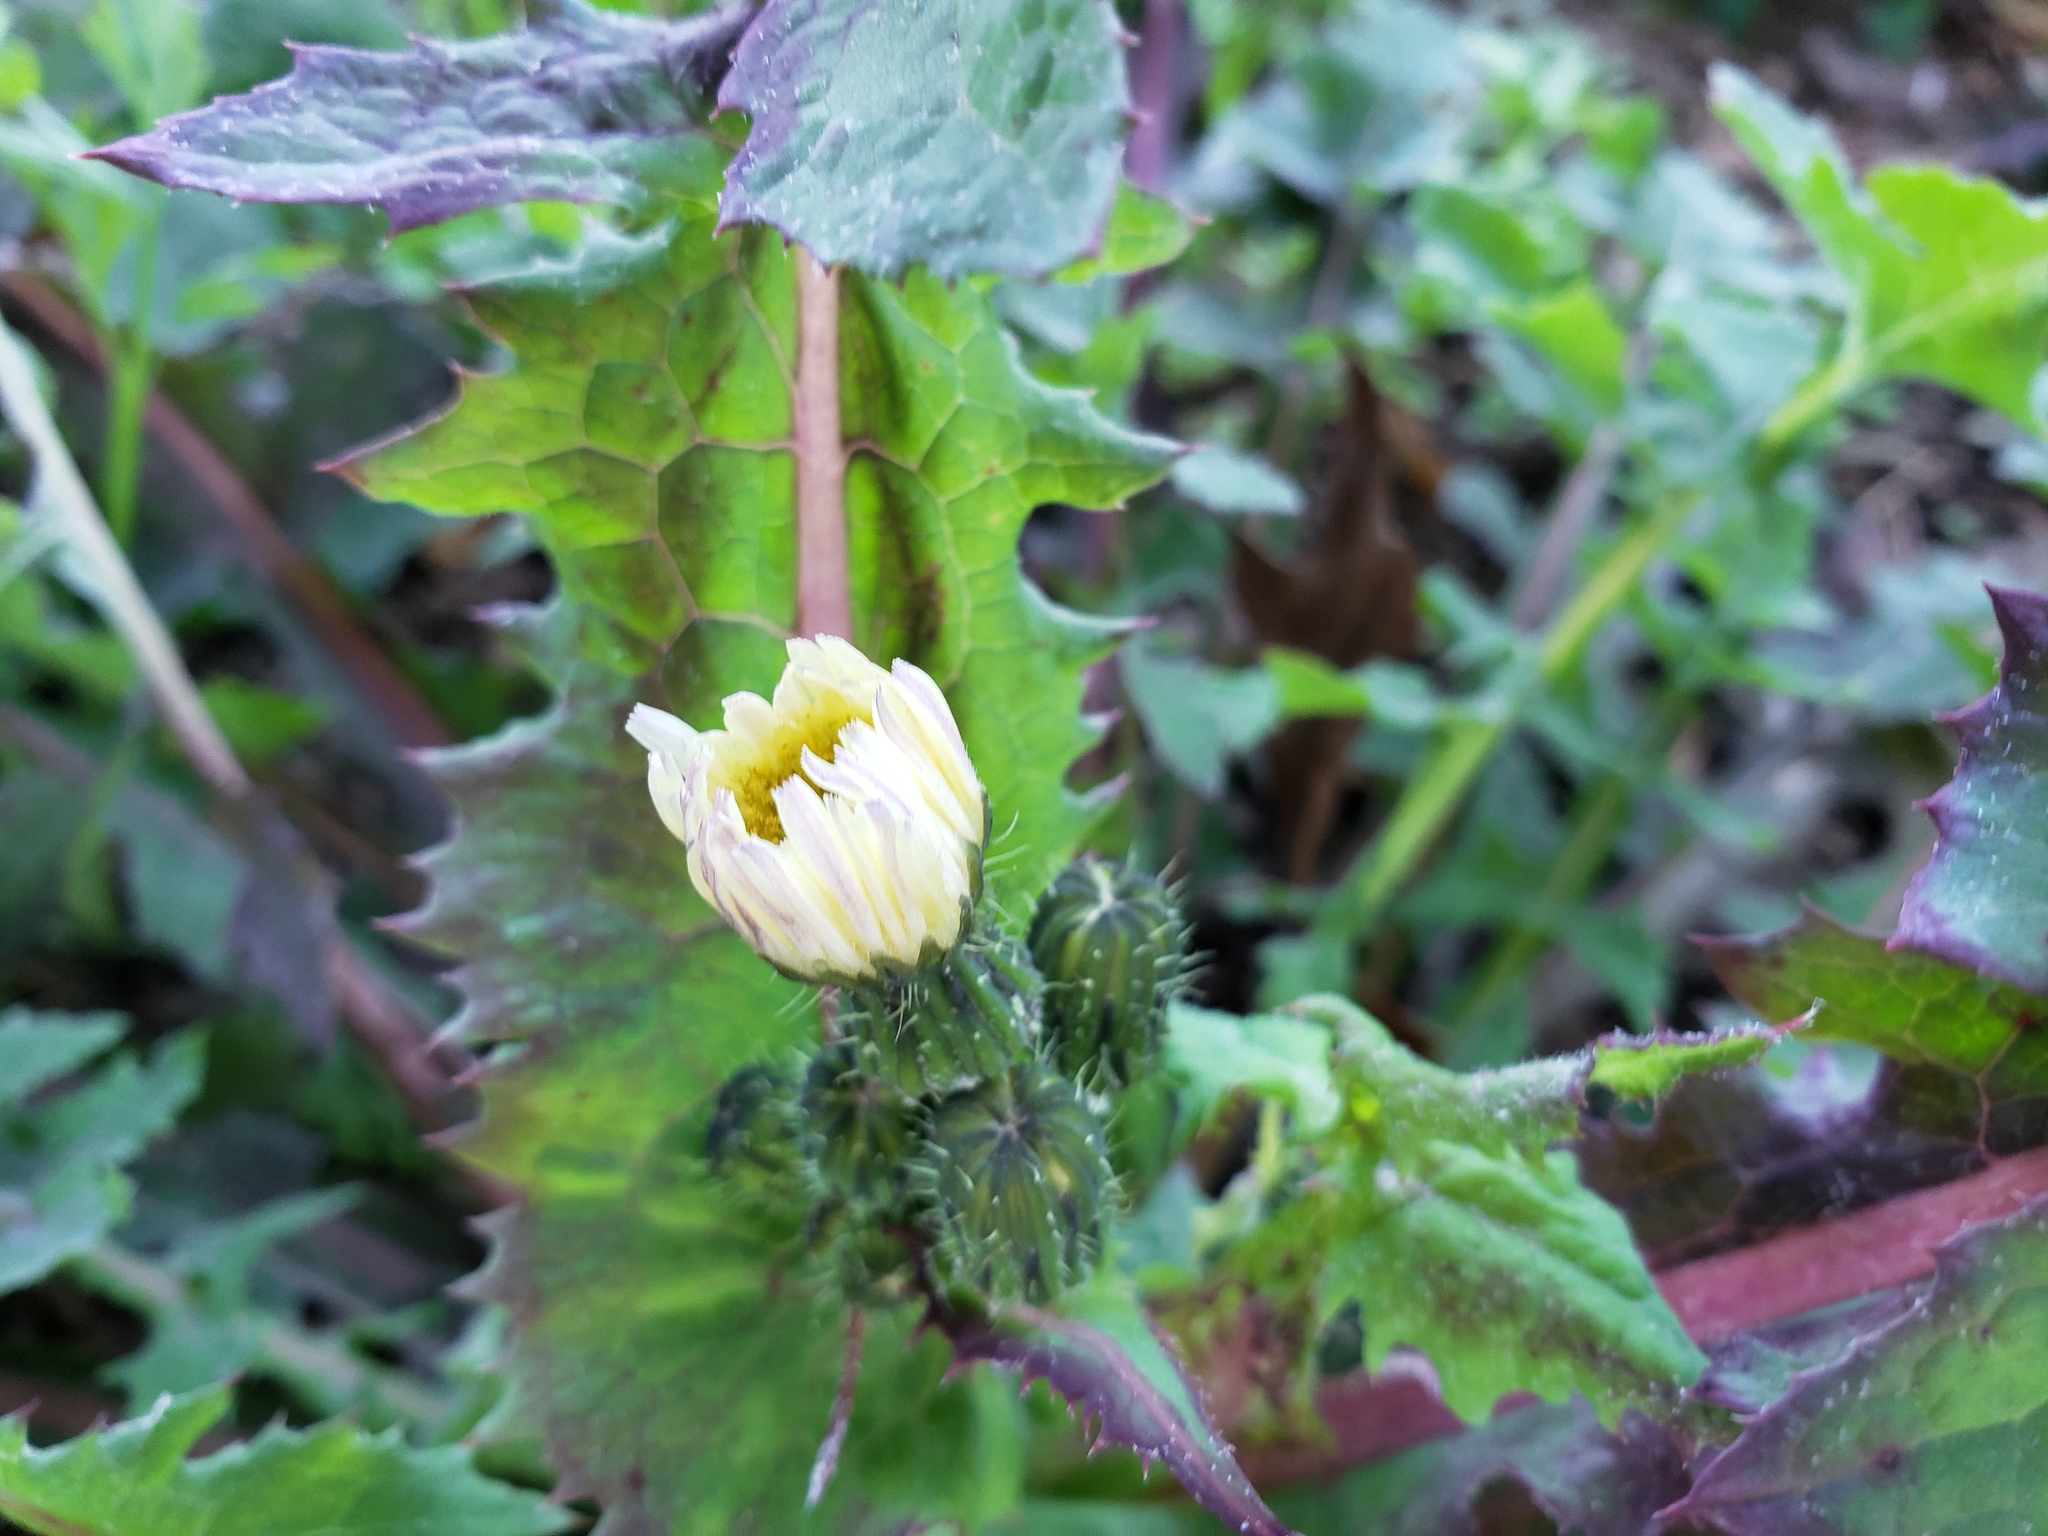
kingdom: Plantae
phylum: Tracheophyta
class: Magnoliopsida
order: Asterales
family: Asteraceae
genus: Sonchus
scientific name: Sonchus oleraceus
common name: Common sowthistle
